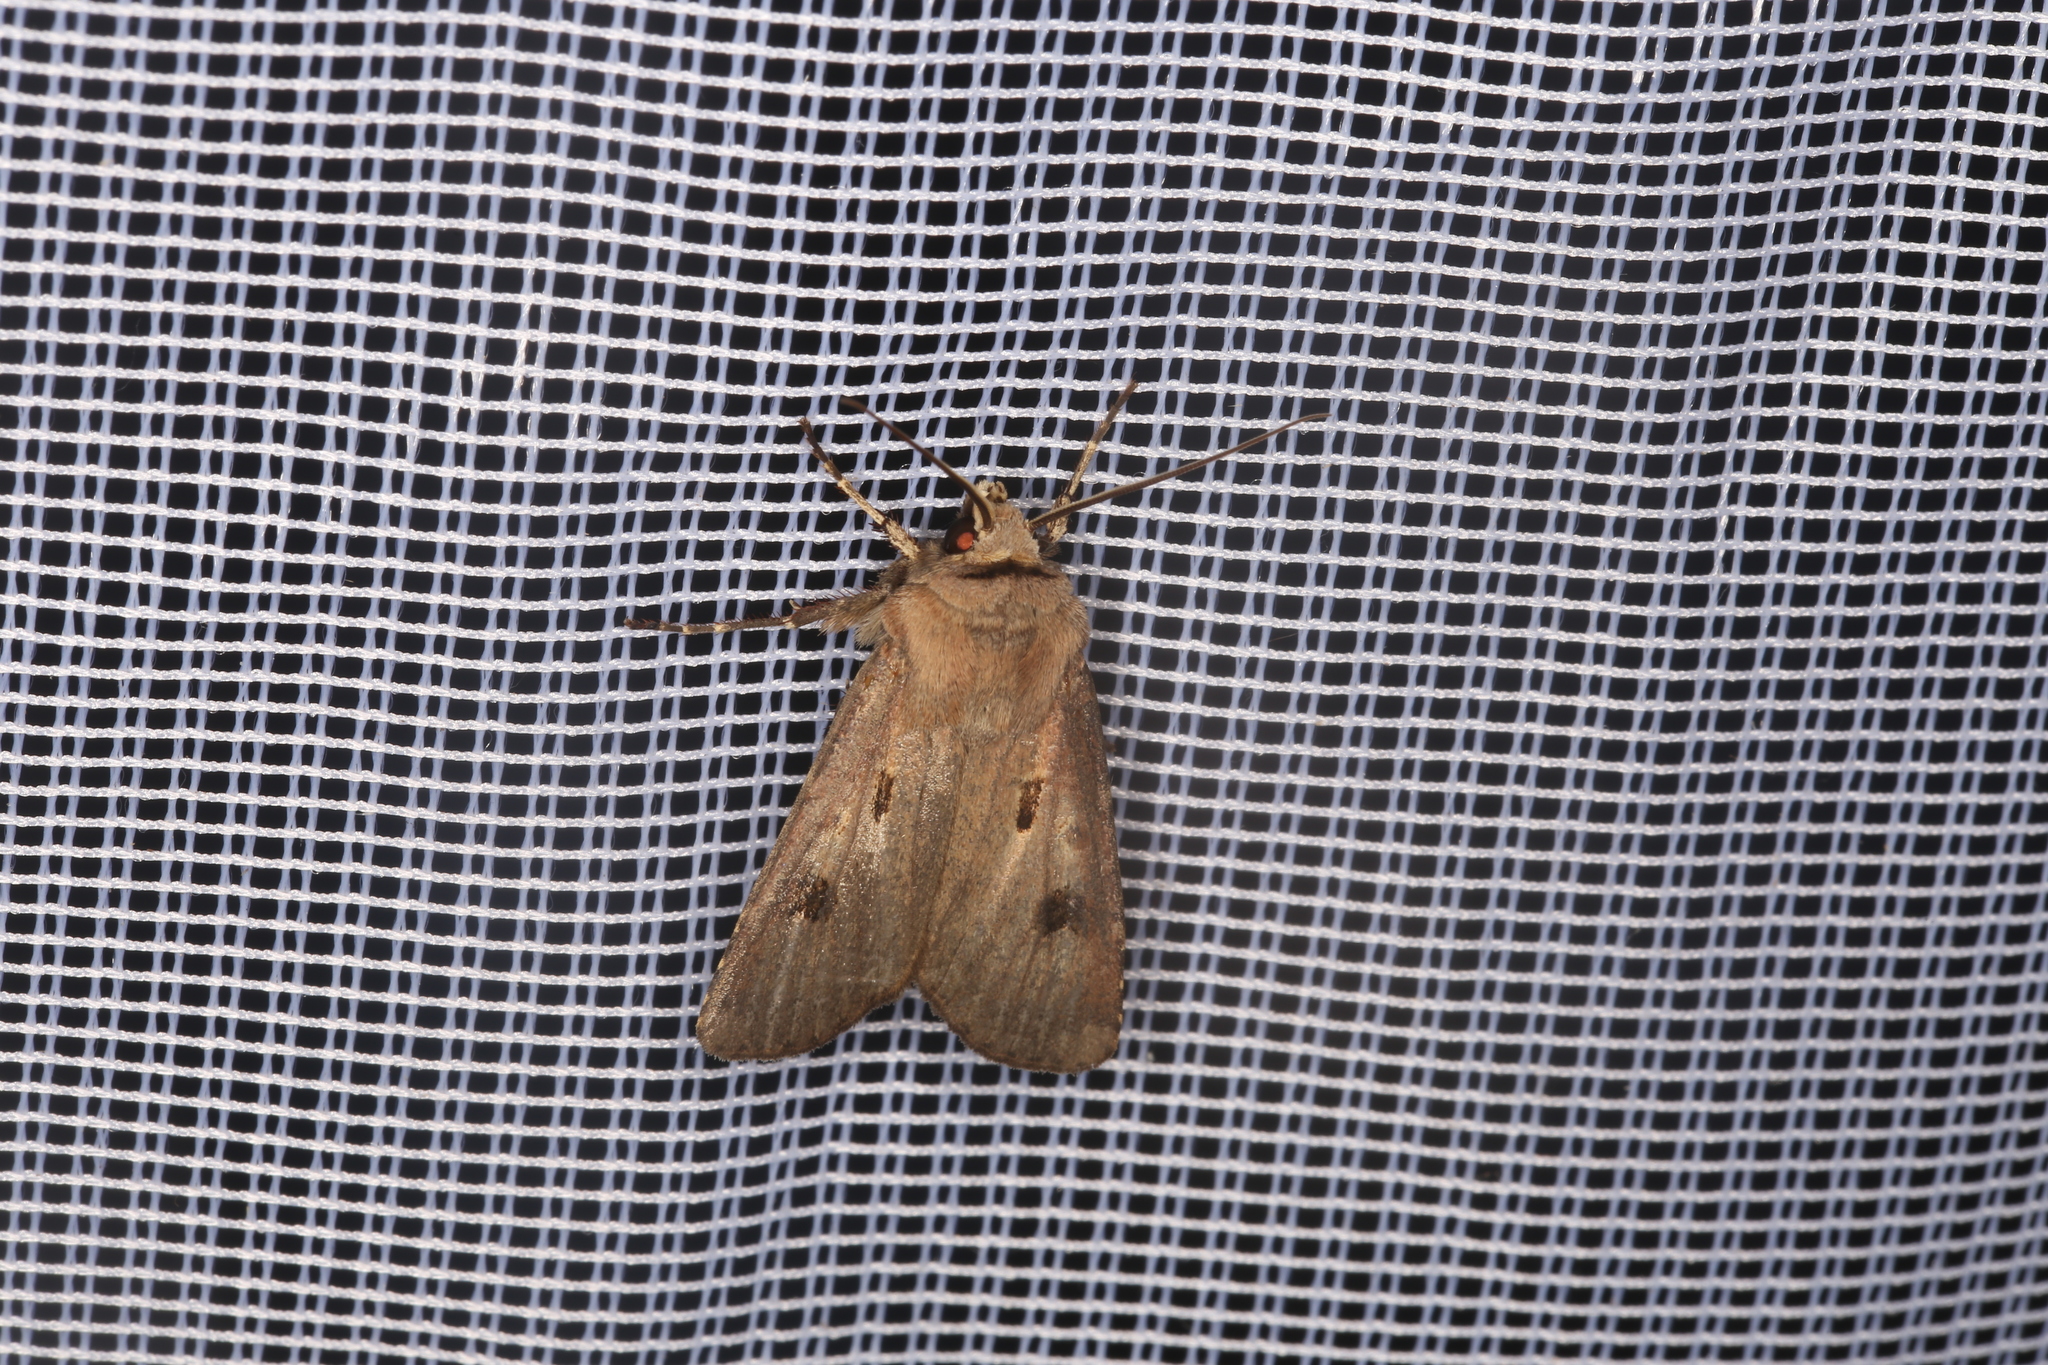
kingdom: Animalia
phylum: Arthropoda
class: Insecta
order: Lepidoptera
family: Noctuidae
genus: Agrotis
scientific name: Agrotis exclamationis
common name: Heart and dart
